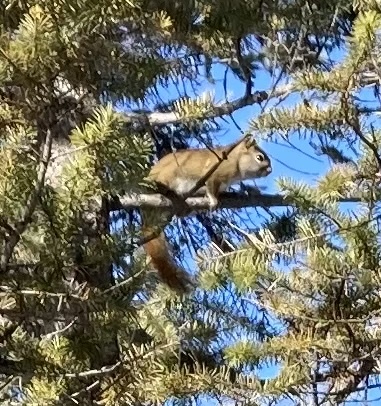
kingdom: Animalia
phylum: Chordata
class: Mammalia
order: Rodentia
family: Sciuridae
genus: Tamiasciurus
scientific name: Tamiasciurus hudsonicus
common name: Red squirrel
